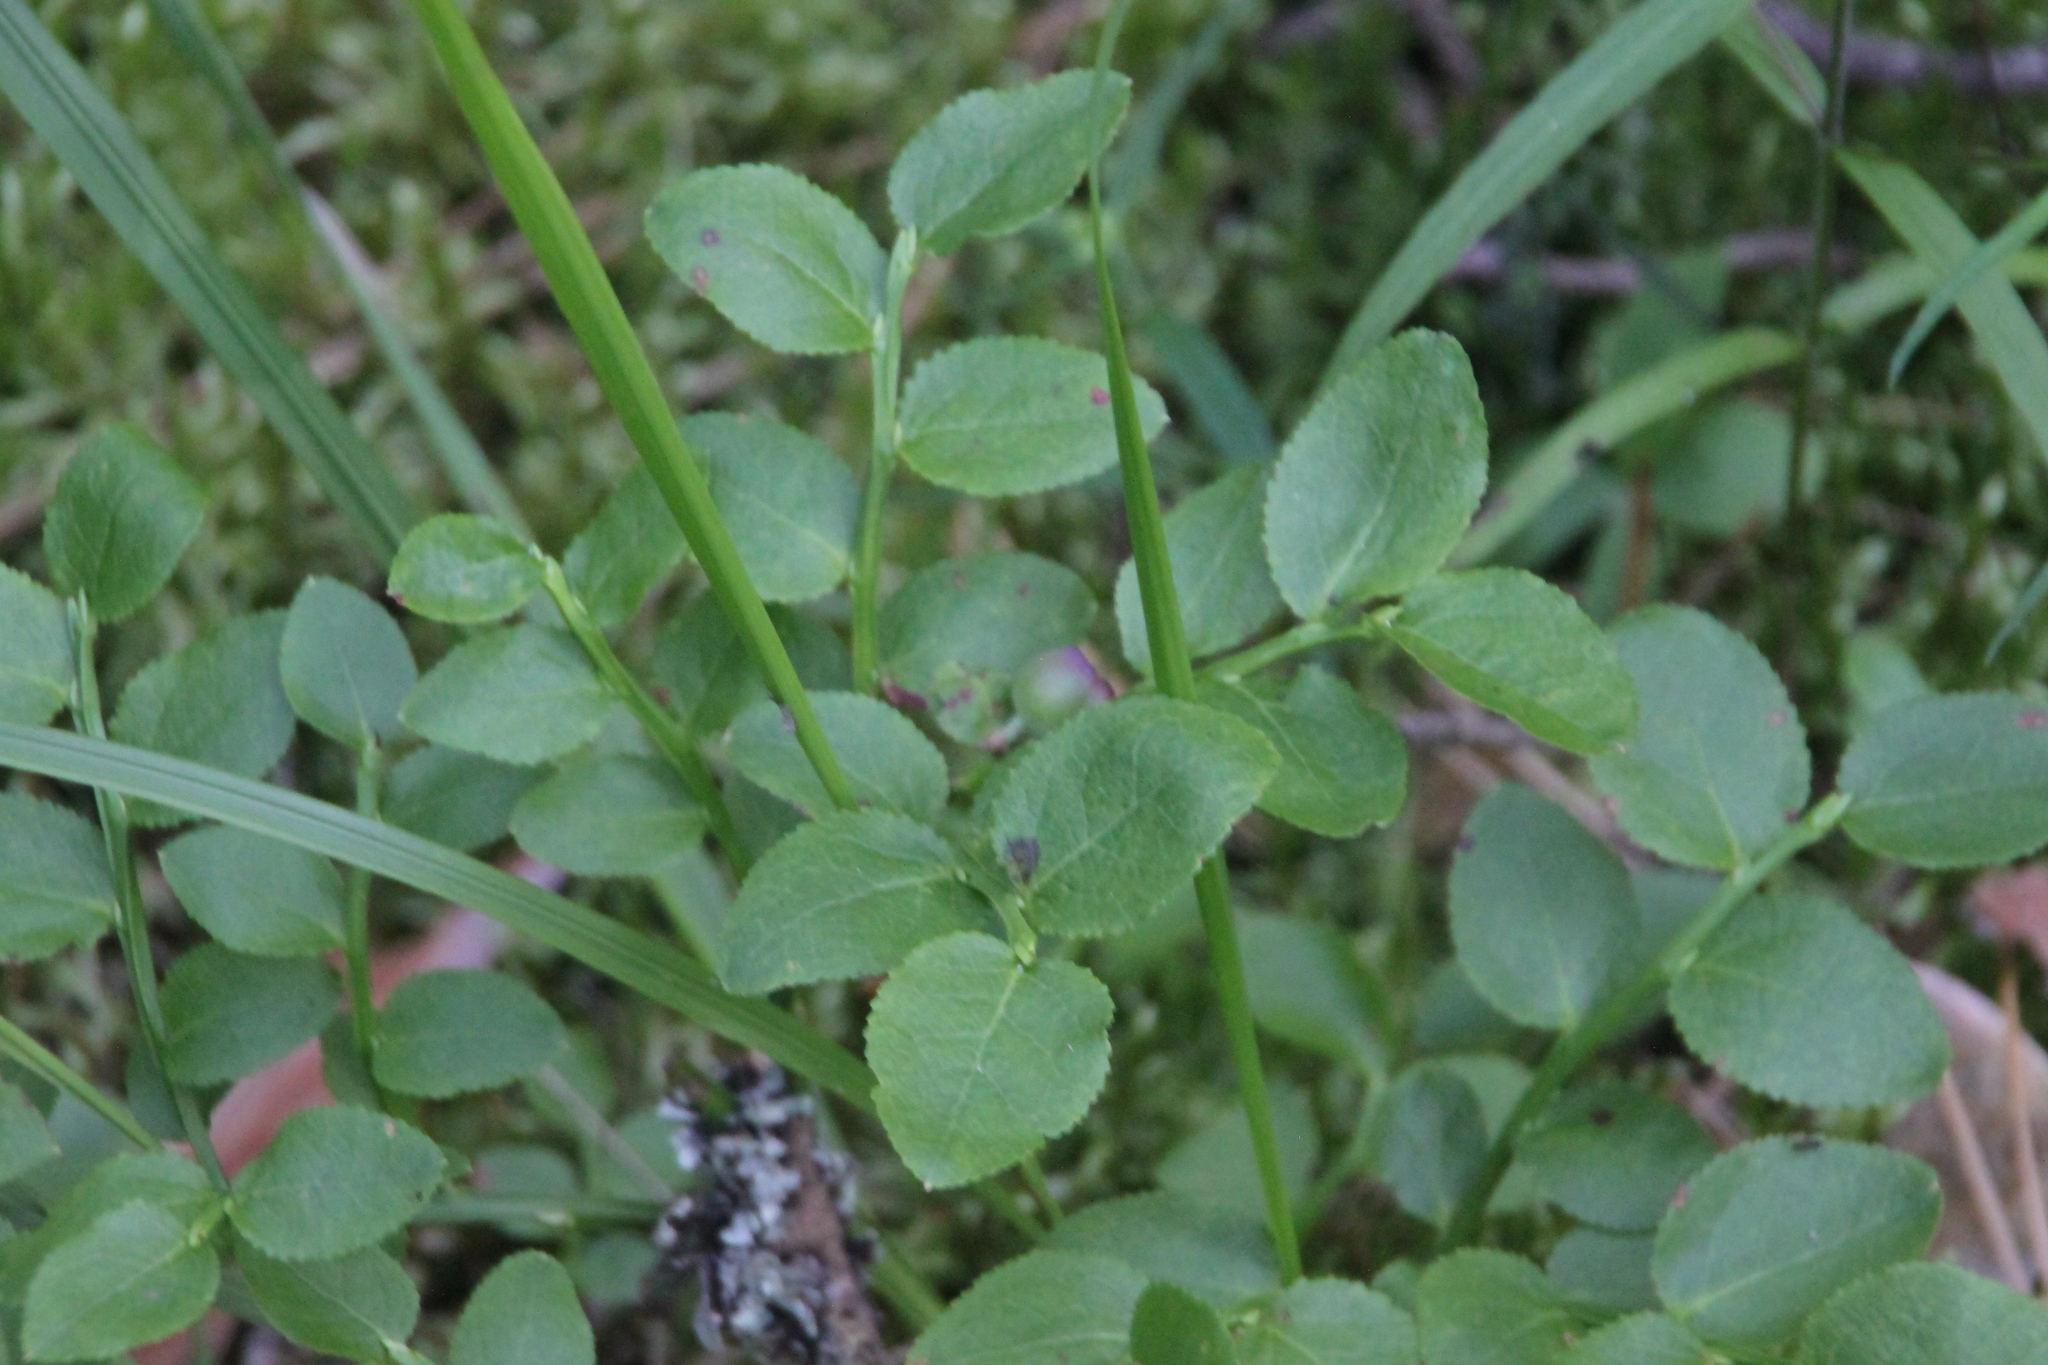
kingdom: Plantae
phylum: Tracheophyta
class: Magnoliopsida
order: Ericales
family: Ericaceae
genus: Vaccinium
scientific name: Vaccinium myrtillus
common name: Bilberry
